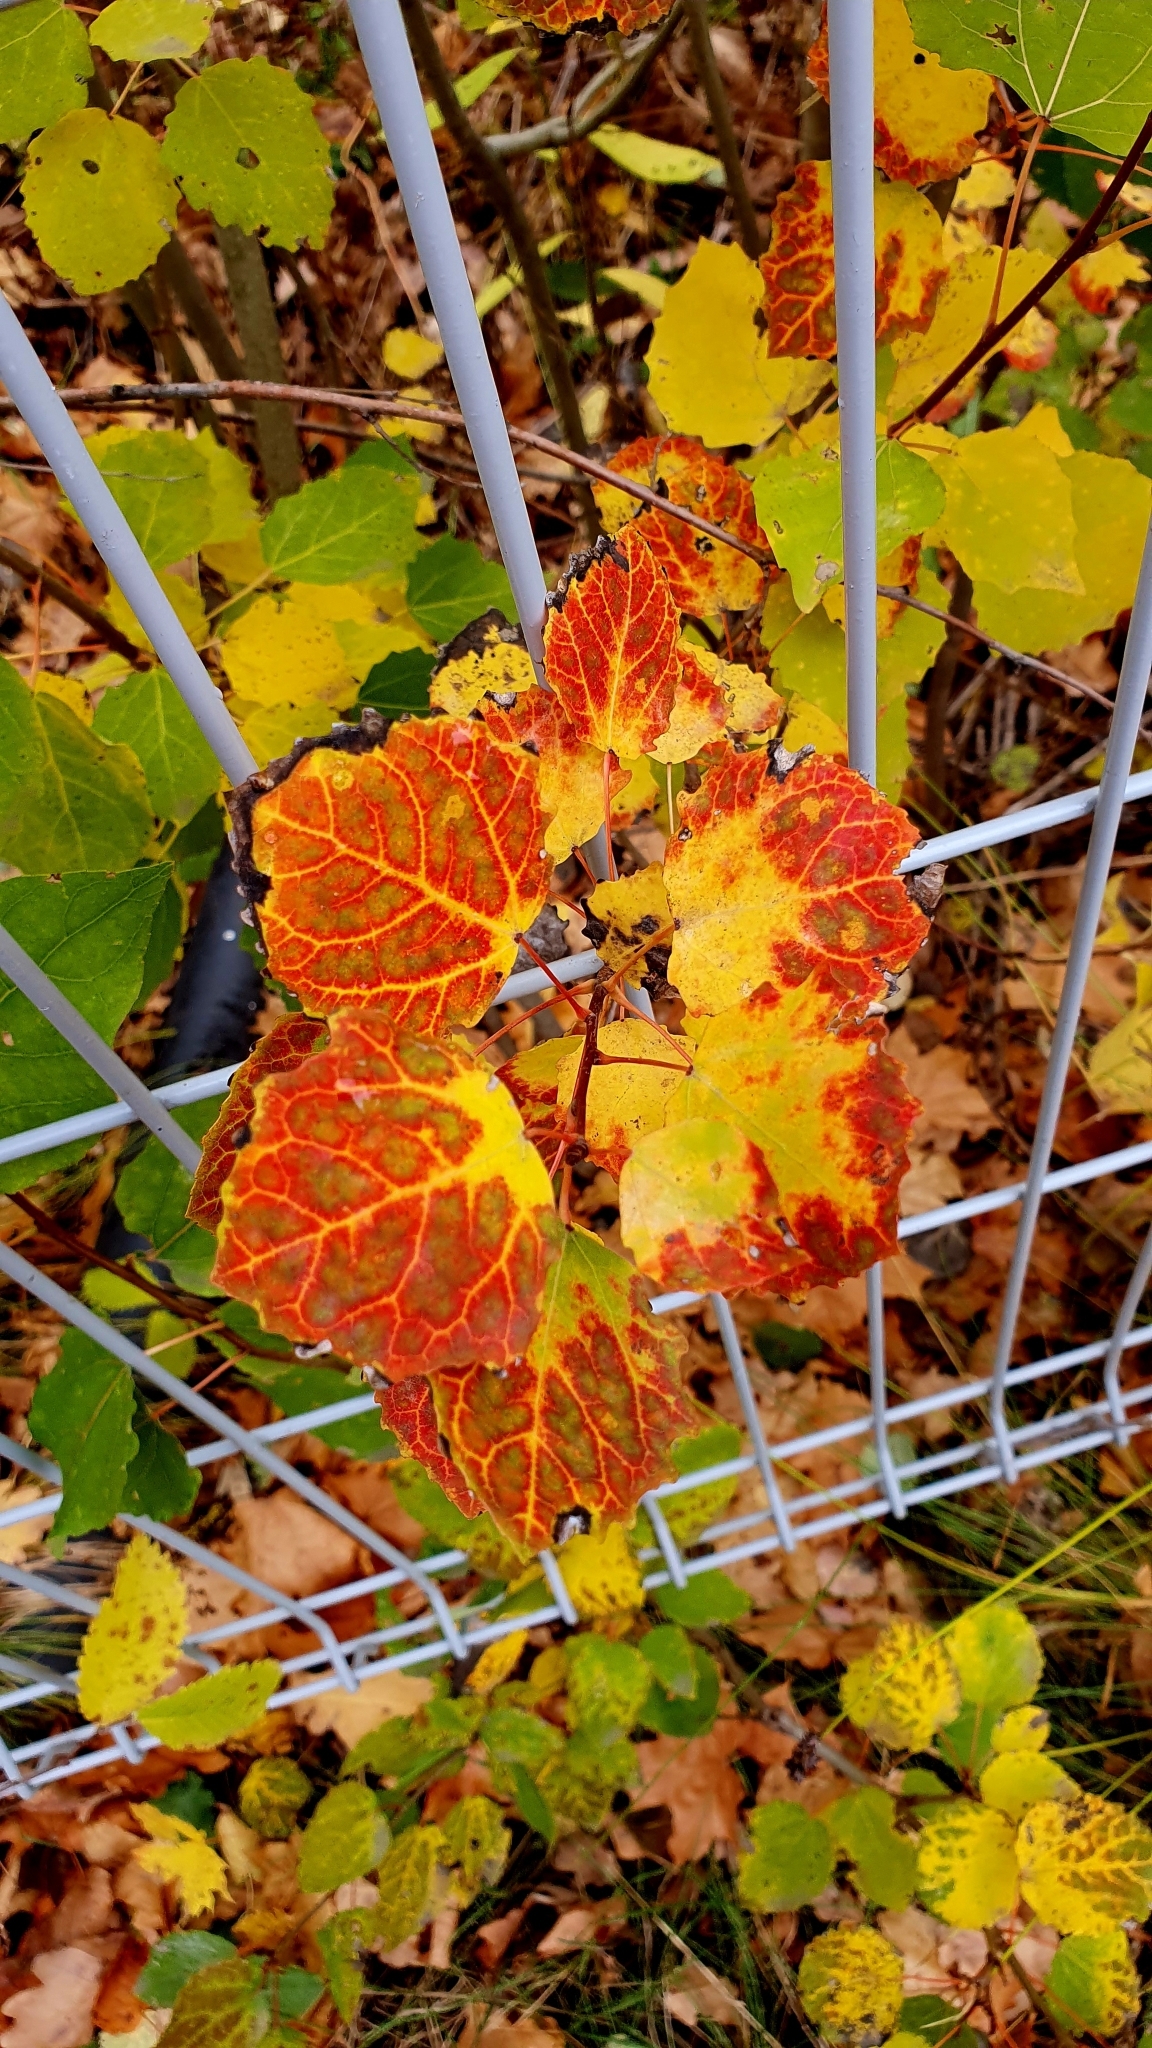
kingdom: Plantae
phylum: Tracheophyta
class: Magnoliopsida
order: Malpighiales
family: Salicaceae
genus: Populus
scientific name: Populus tremula
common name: European aspen
